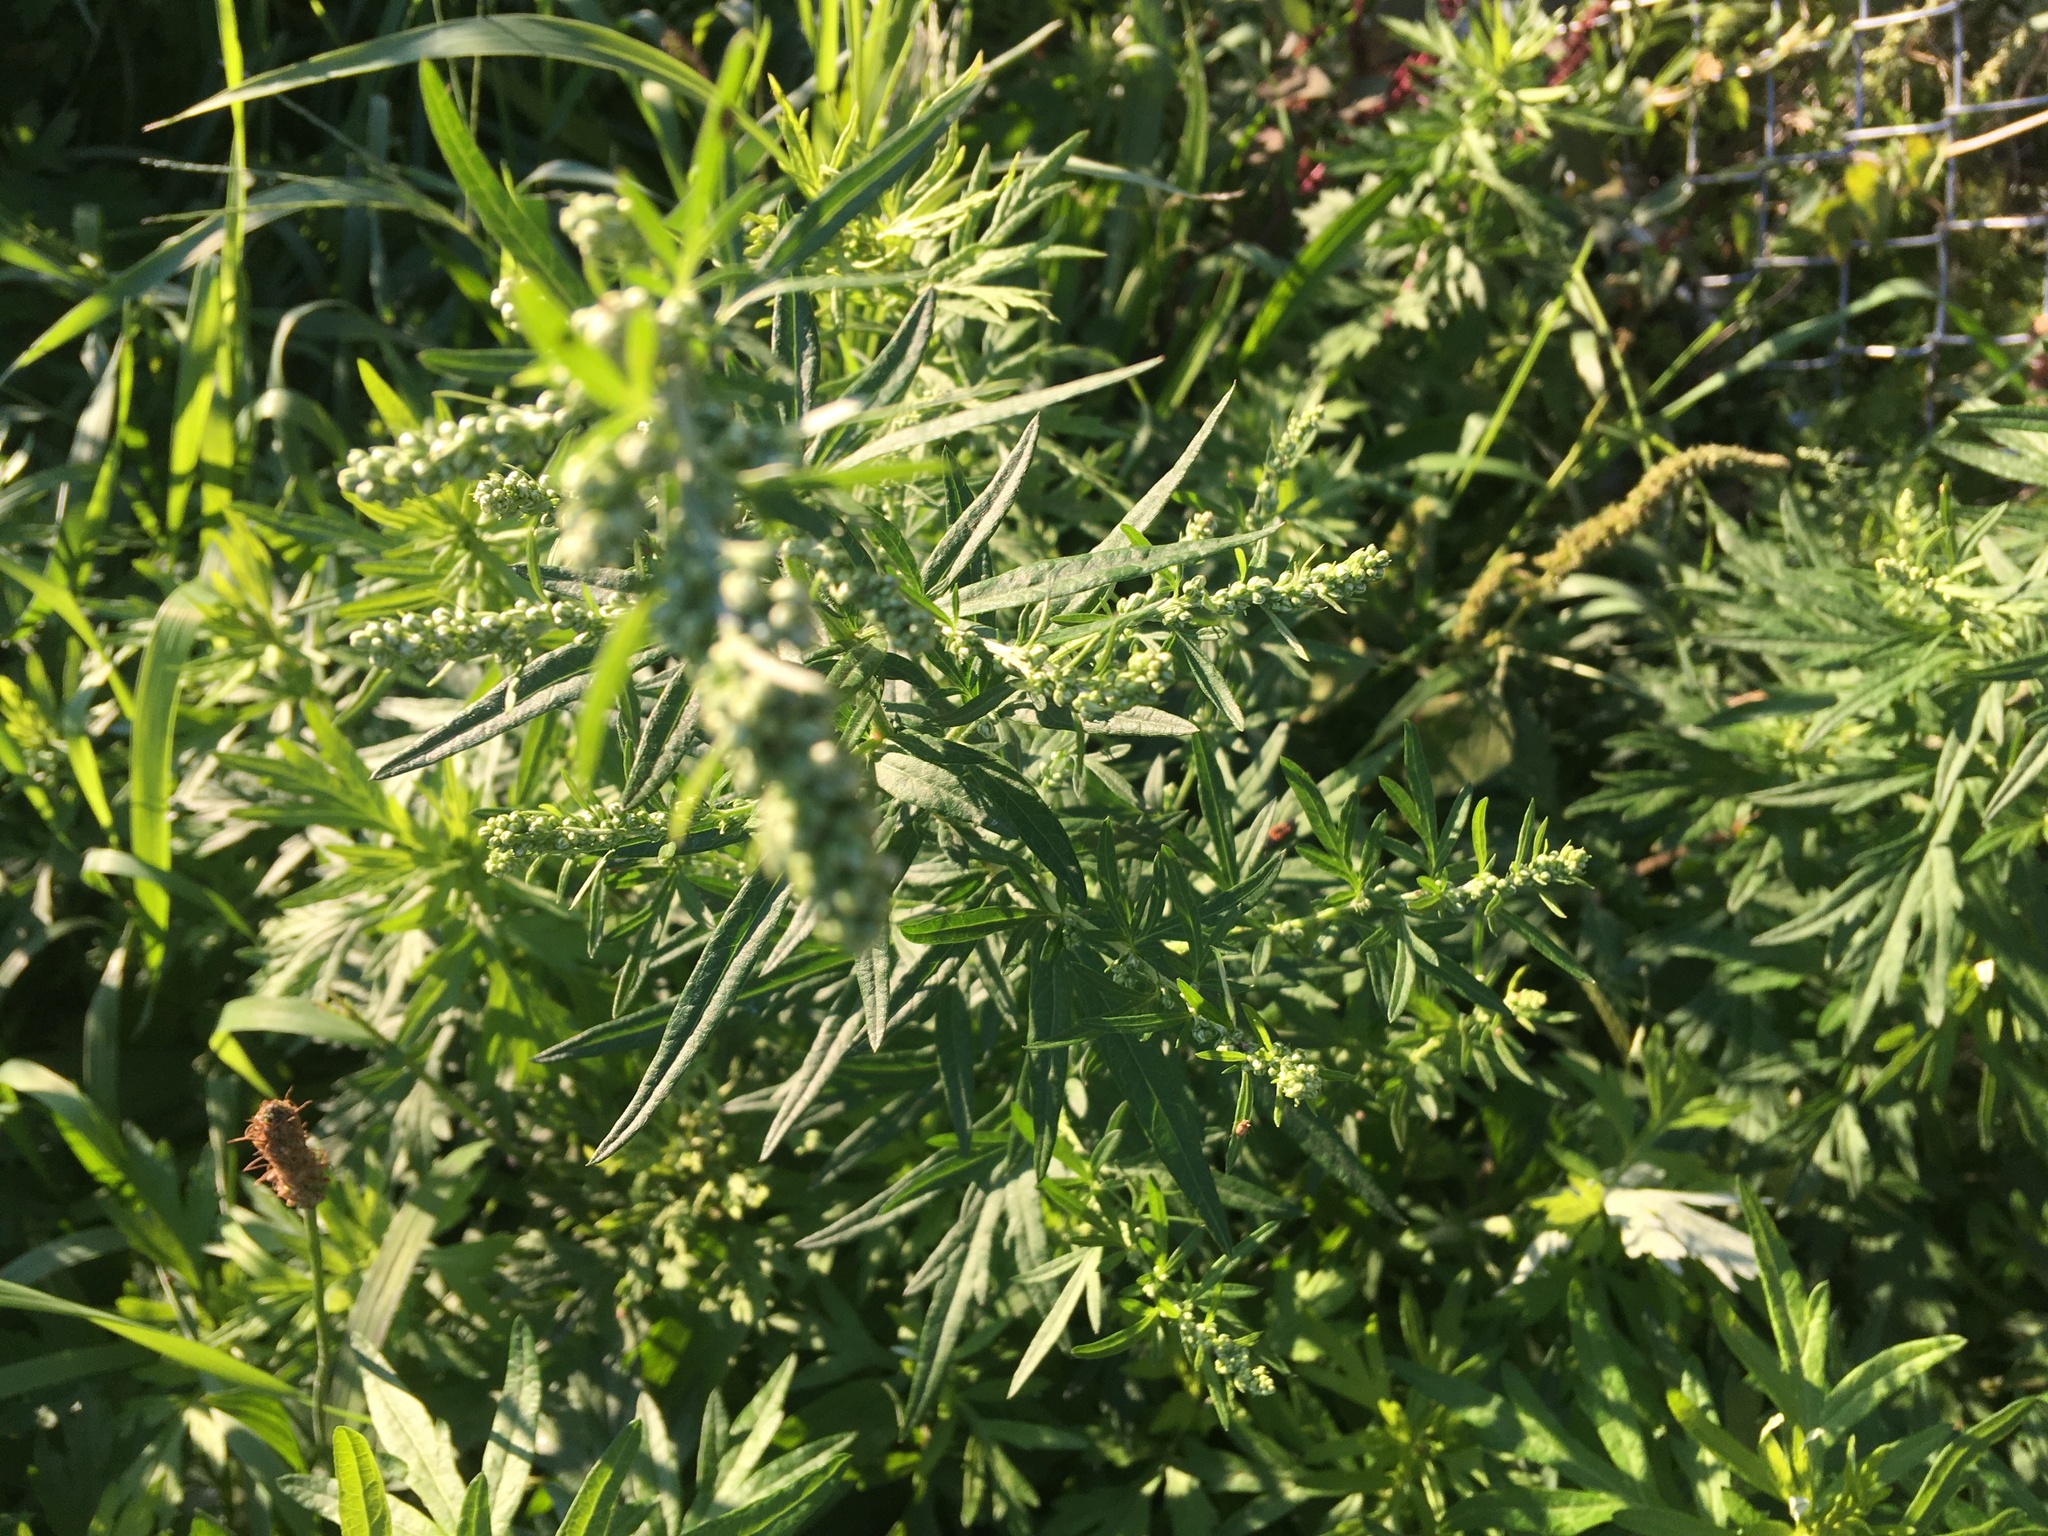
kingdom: Plantae
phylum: Tracheophyta
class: Magnoliopsida
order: Asterales
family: Asteraceae
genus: Artemisia
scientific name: Artemisia vulgaris
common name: Mugwort
